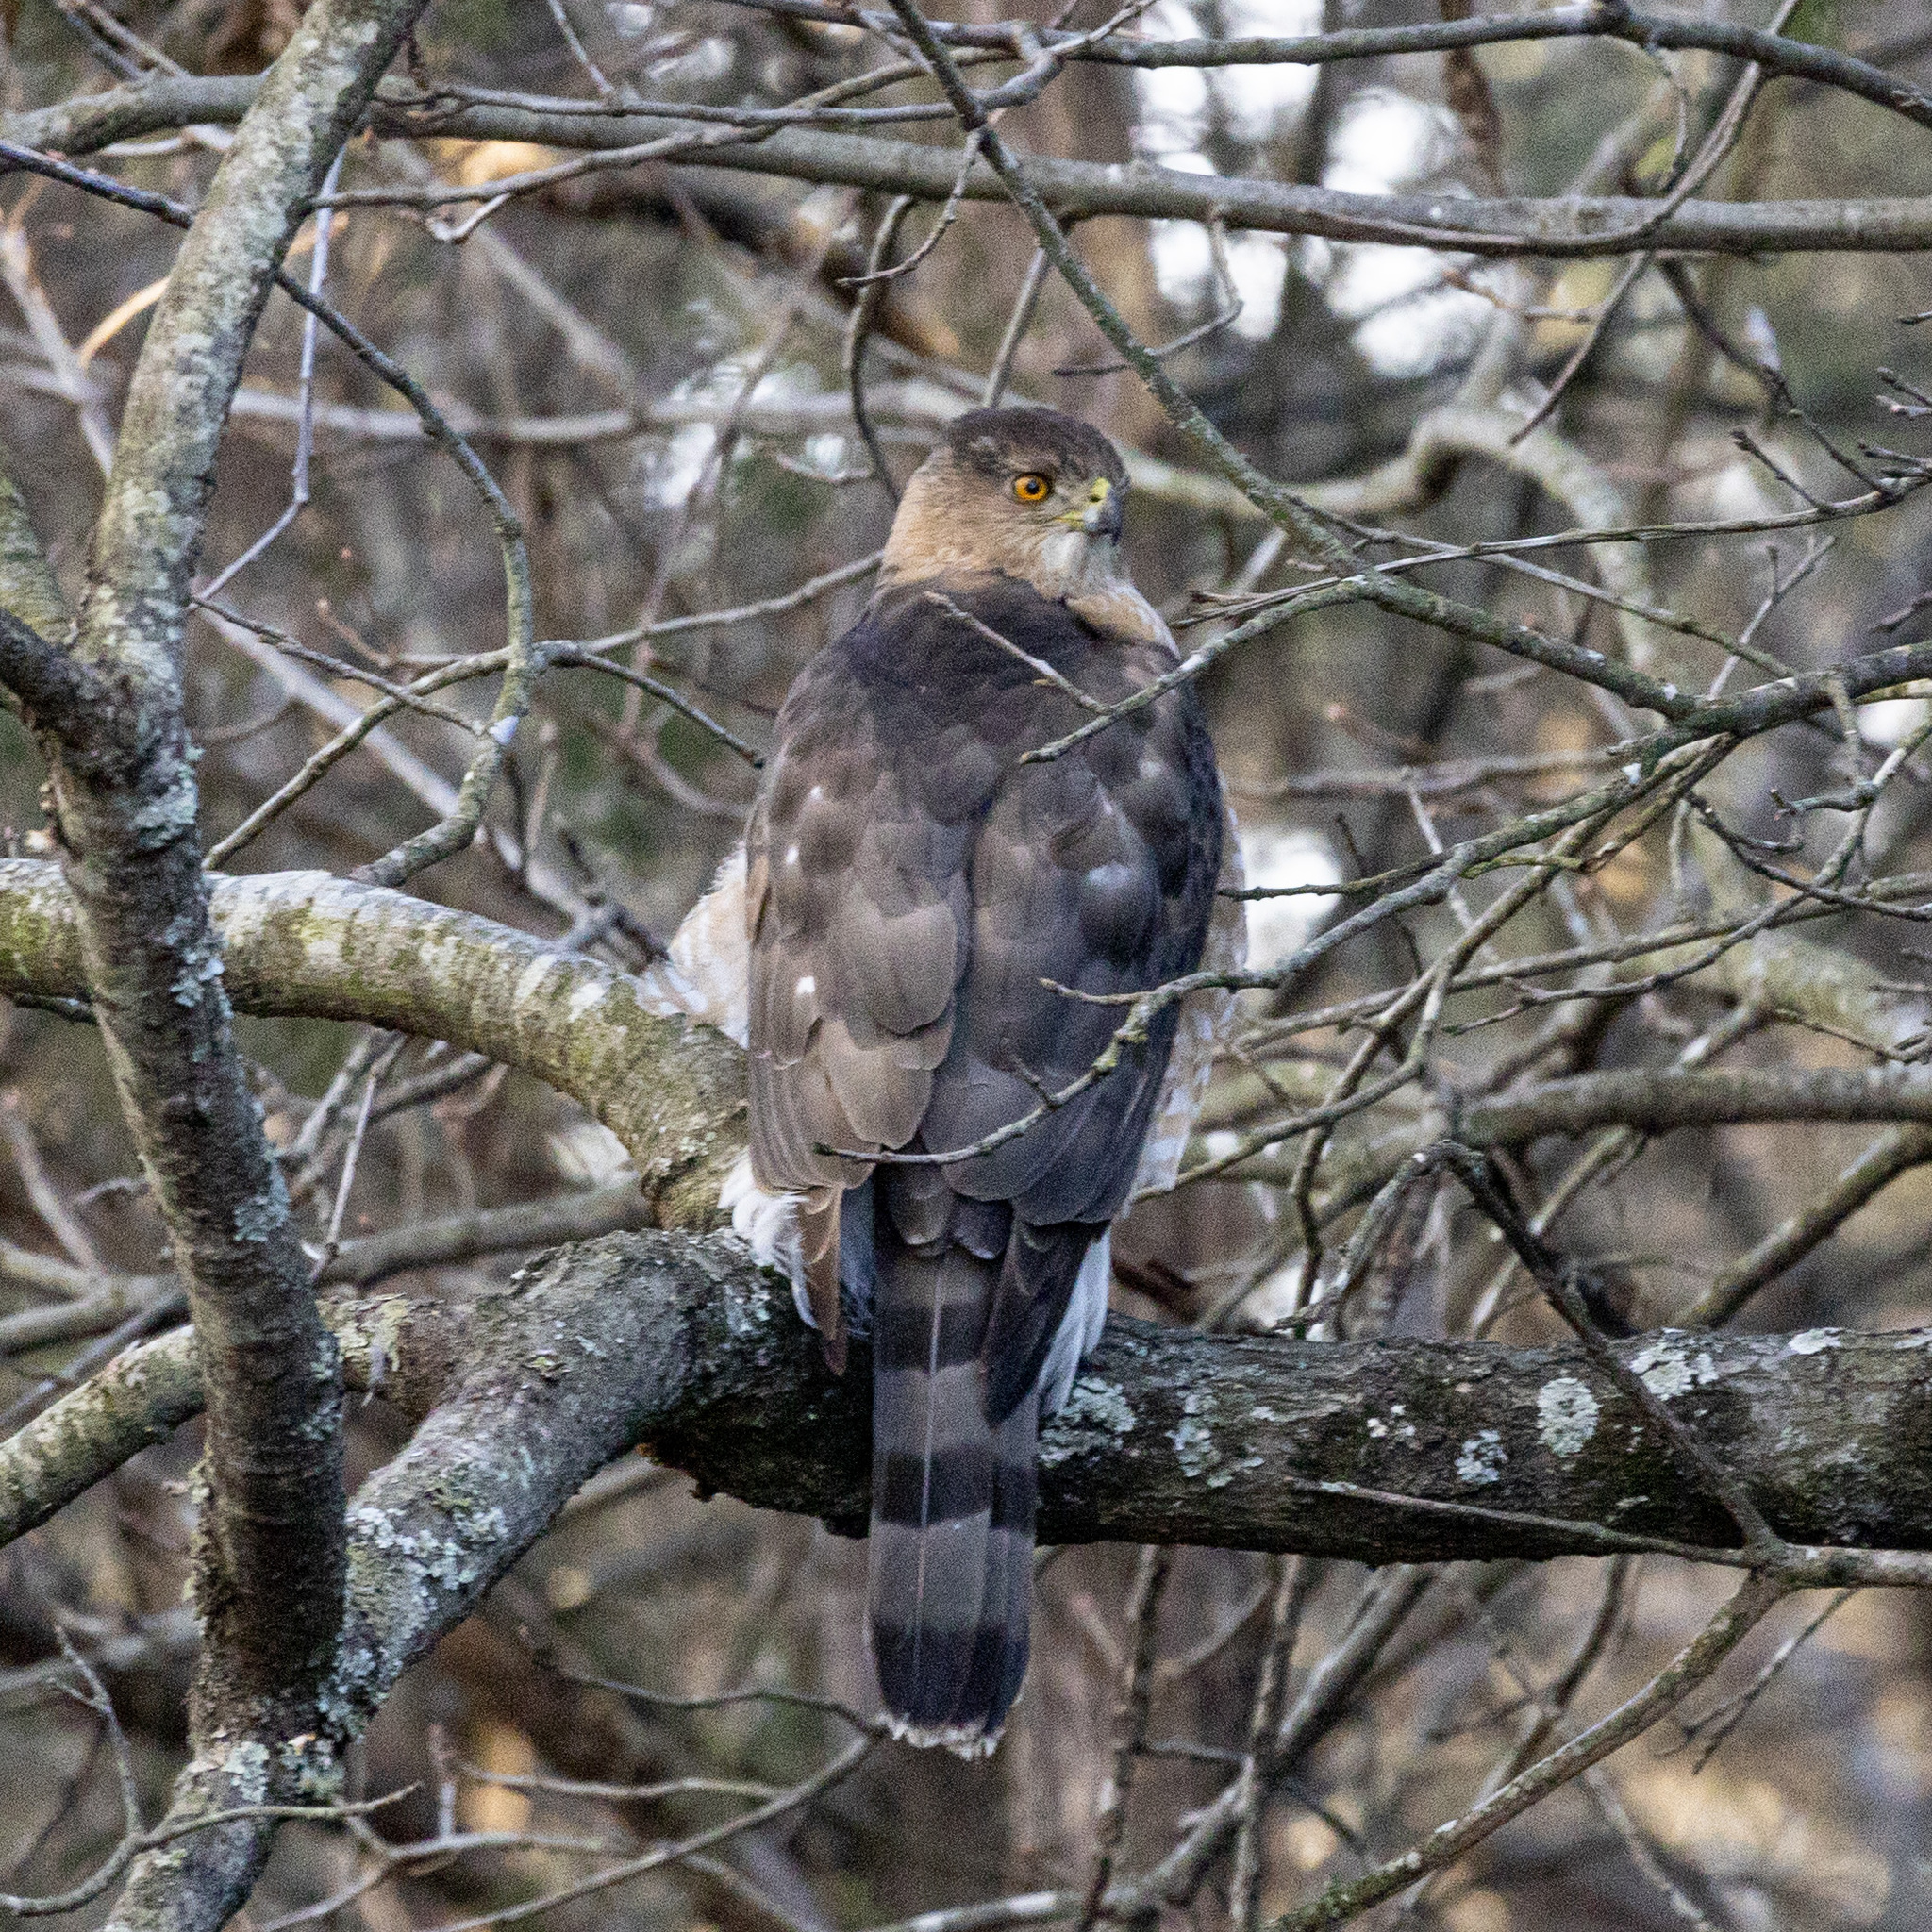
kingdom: Animalia
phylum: Chordata
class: Aves
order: Accipitriformes
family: Accipitridae
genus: Accipiter
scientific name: Accipiter cooperii
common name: Cooper's hawk
